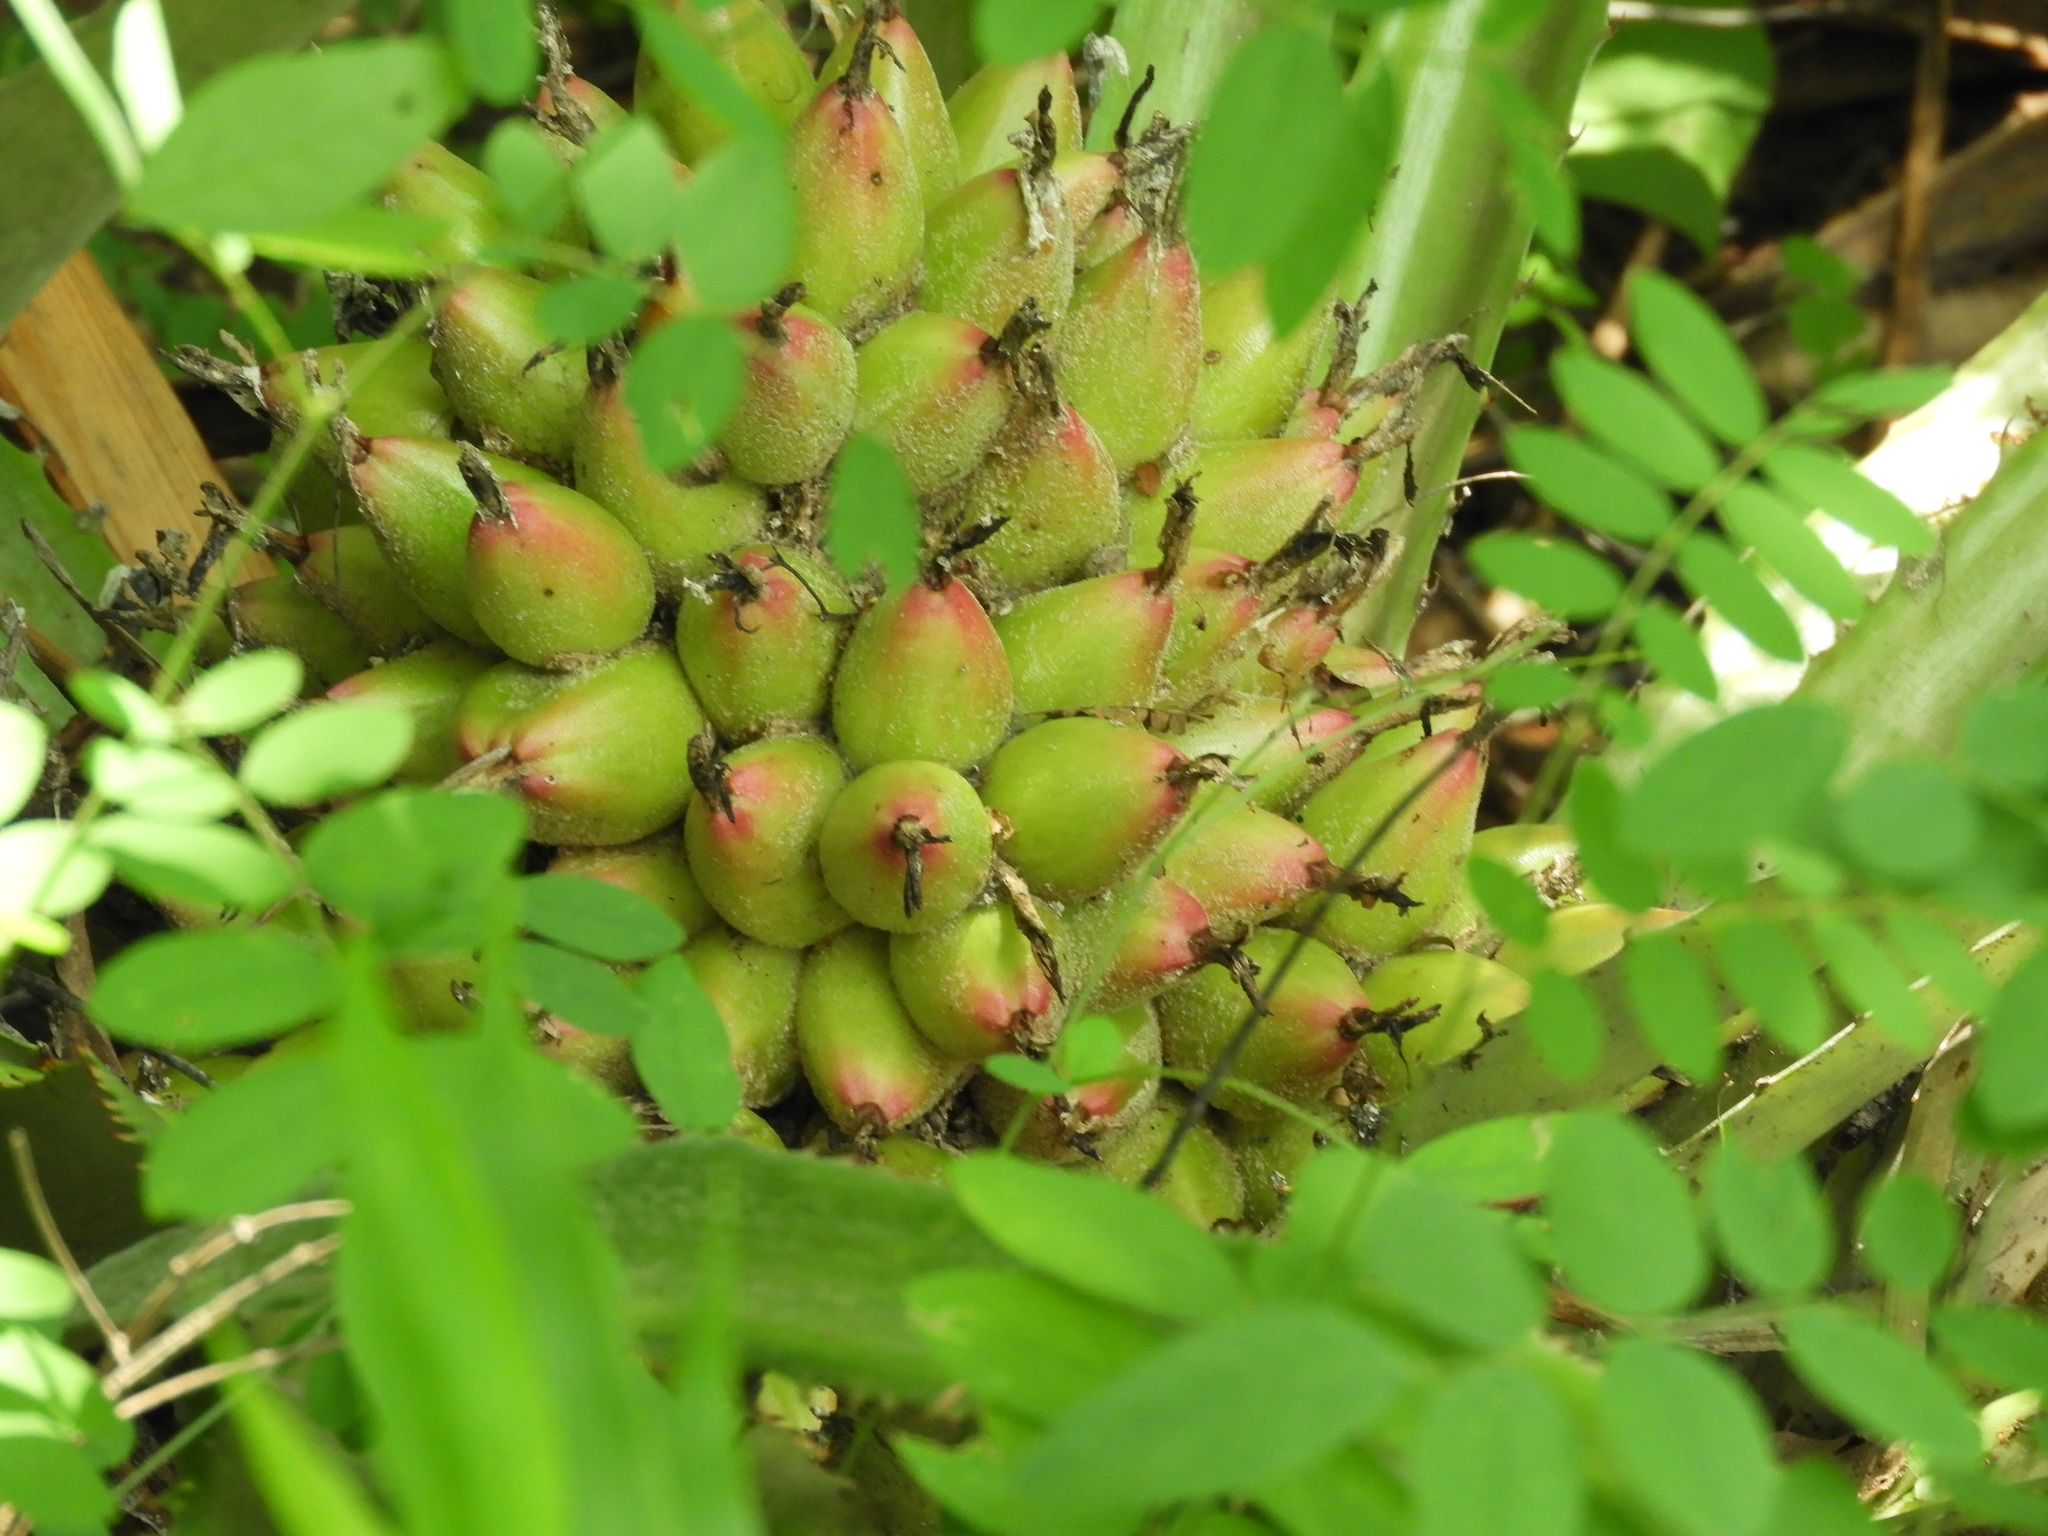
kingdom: Plantae
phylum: Tracheophyta
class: Liliopsida
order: Poales
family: Bromeliaceae
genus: Bromelia
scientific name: Bromelia hemisphaerica
